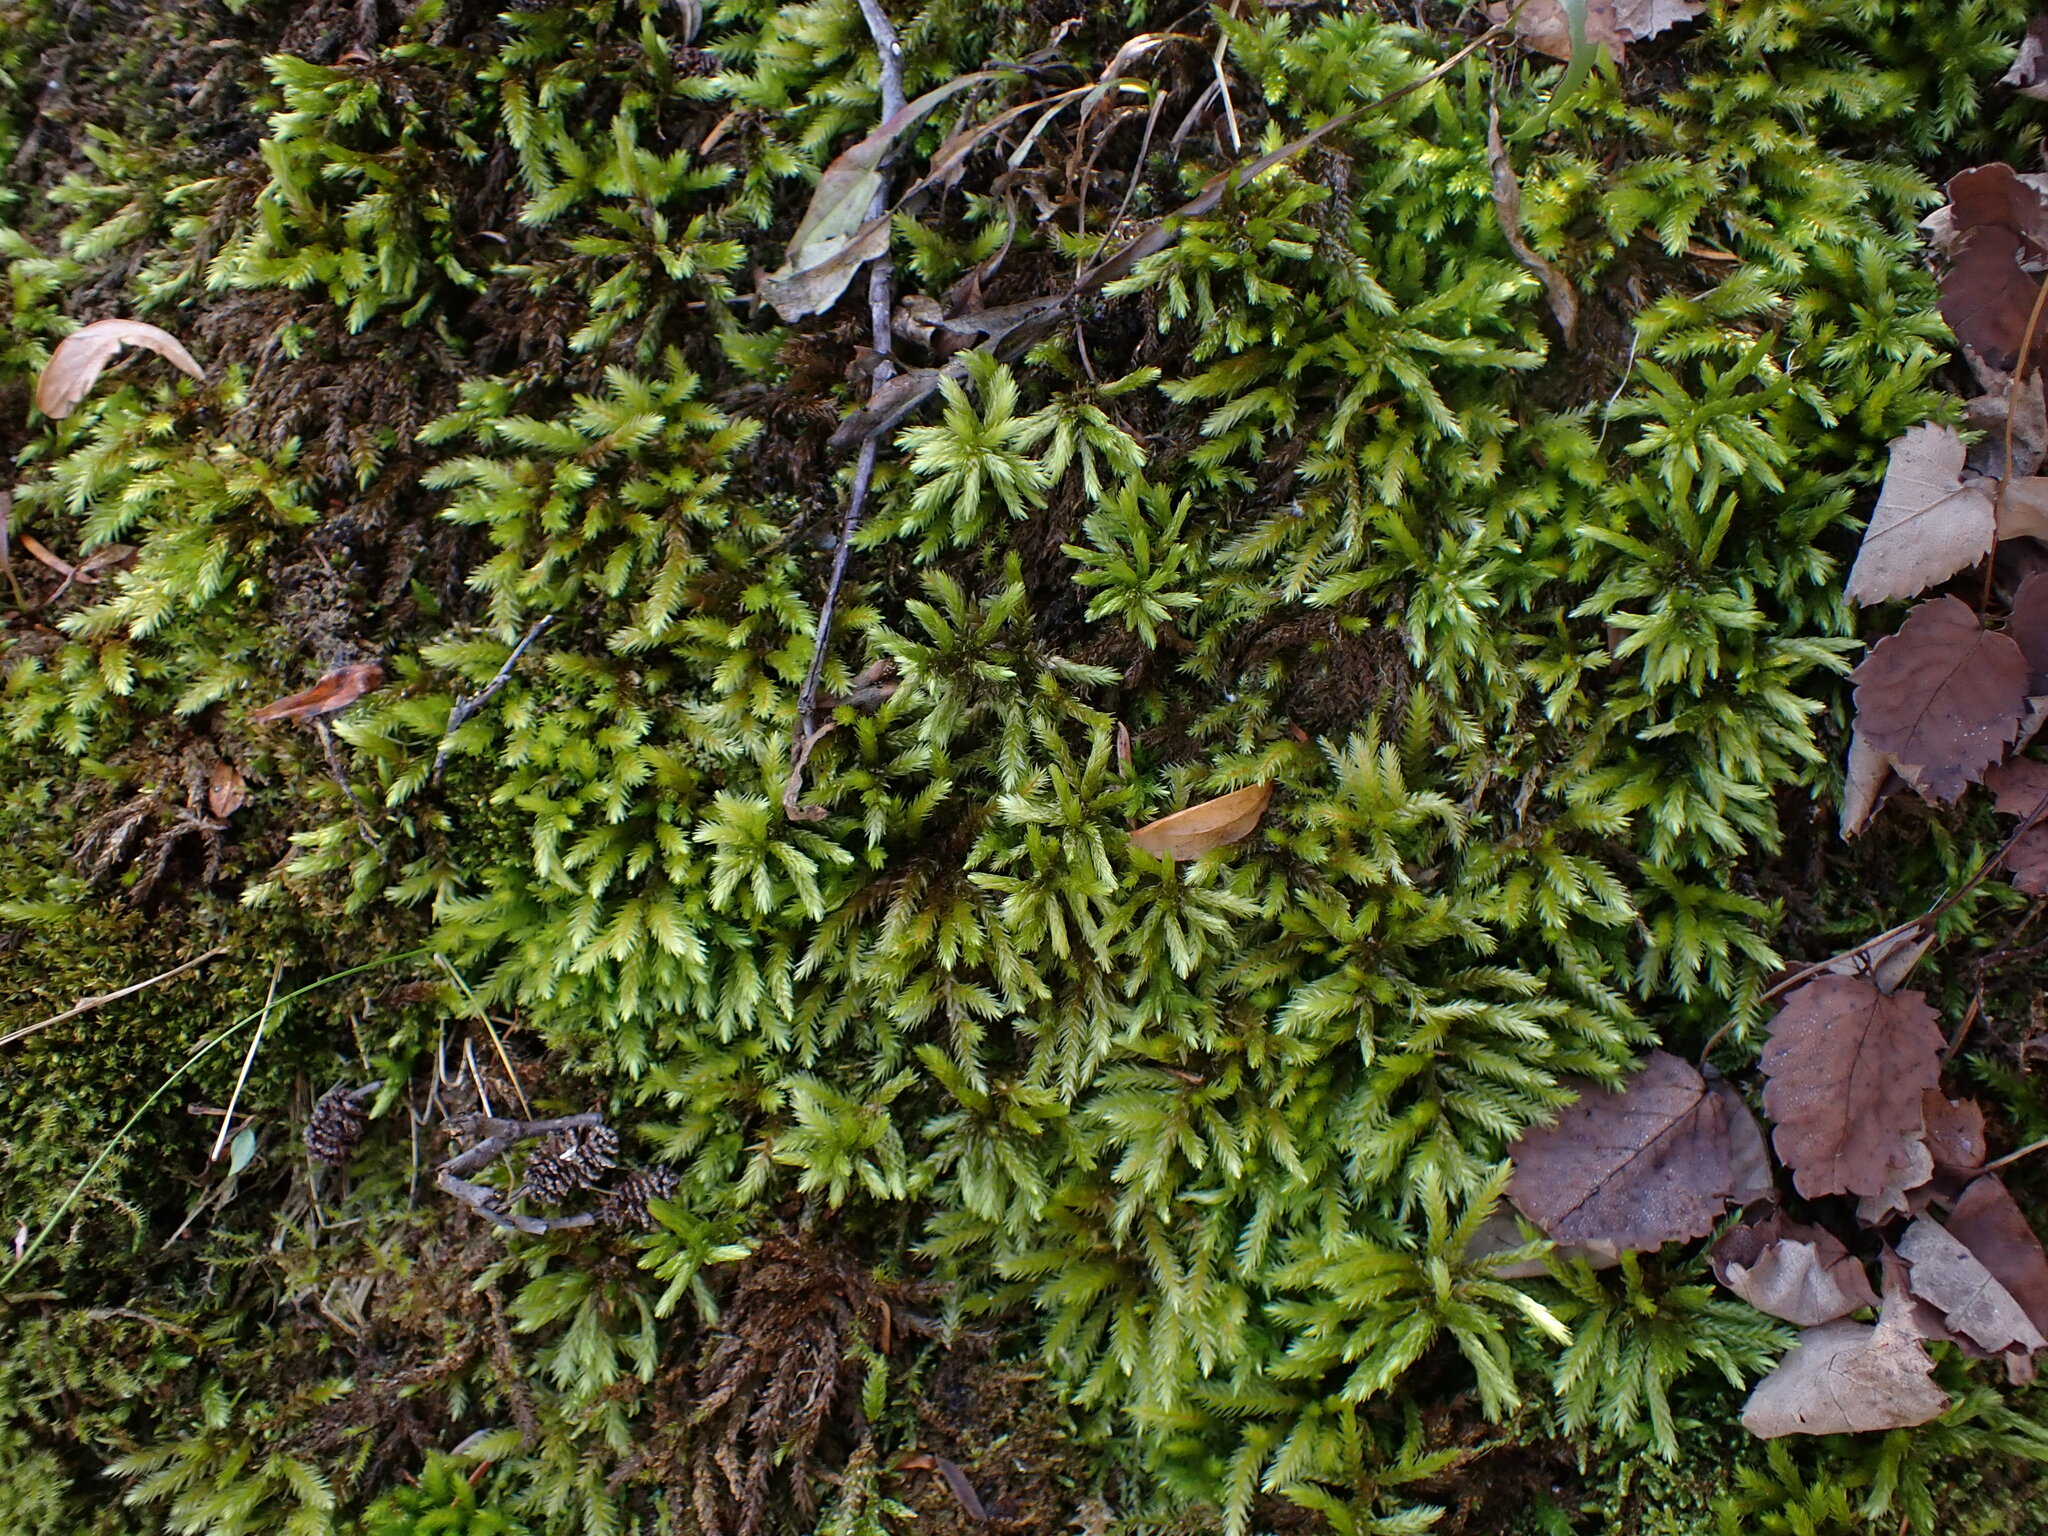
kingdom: Plantae
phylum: Bryophyta
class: Bryopsida
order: Hypnales
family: Climaciaceae
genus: Climacium
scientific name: Climacium dendroides
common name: Northern tree moss
